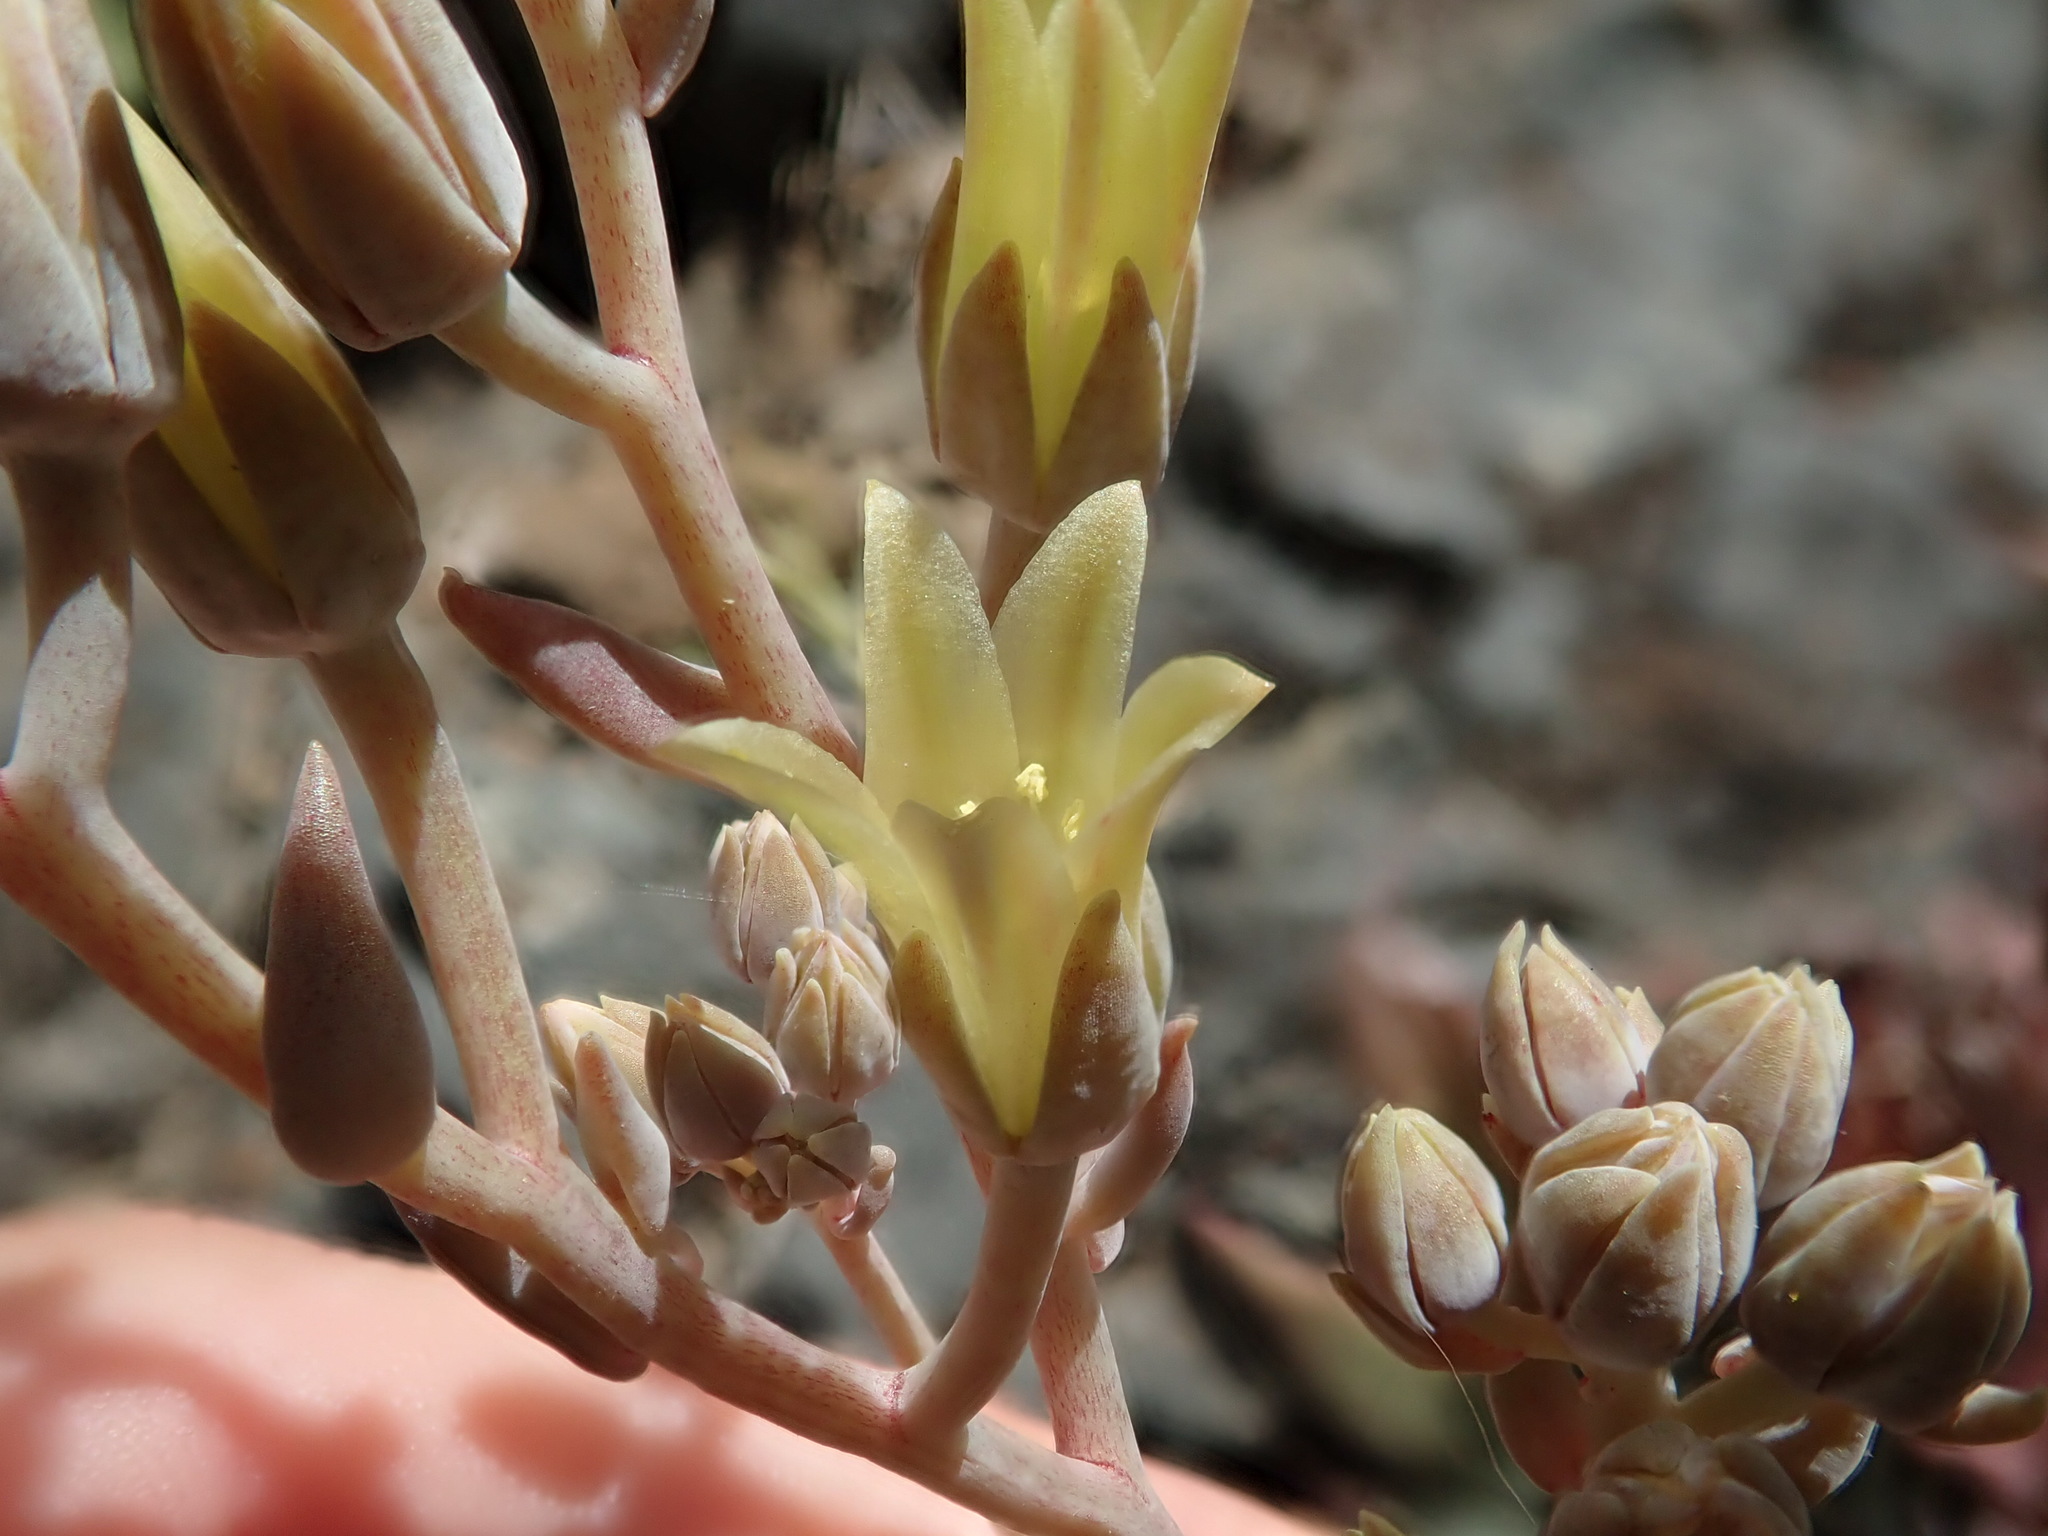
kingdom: Plantae
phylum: Tracheophyta
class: Magnoliopsida
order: Saxifragales
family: Crassulaceae
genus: Dudleya
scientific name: Dudleya abramsii
